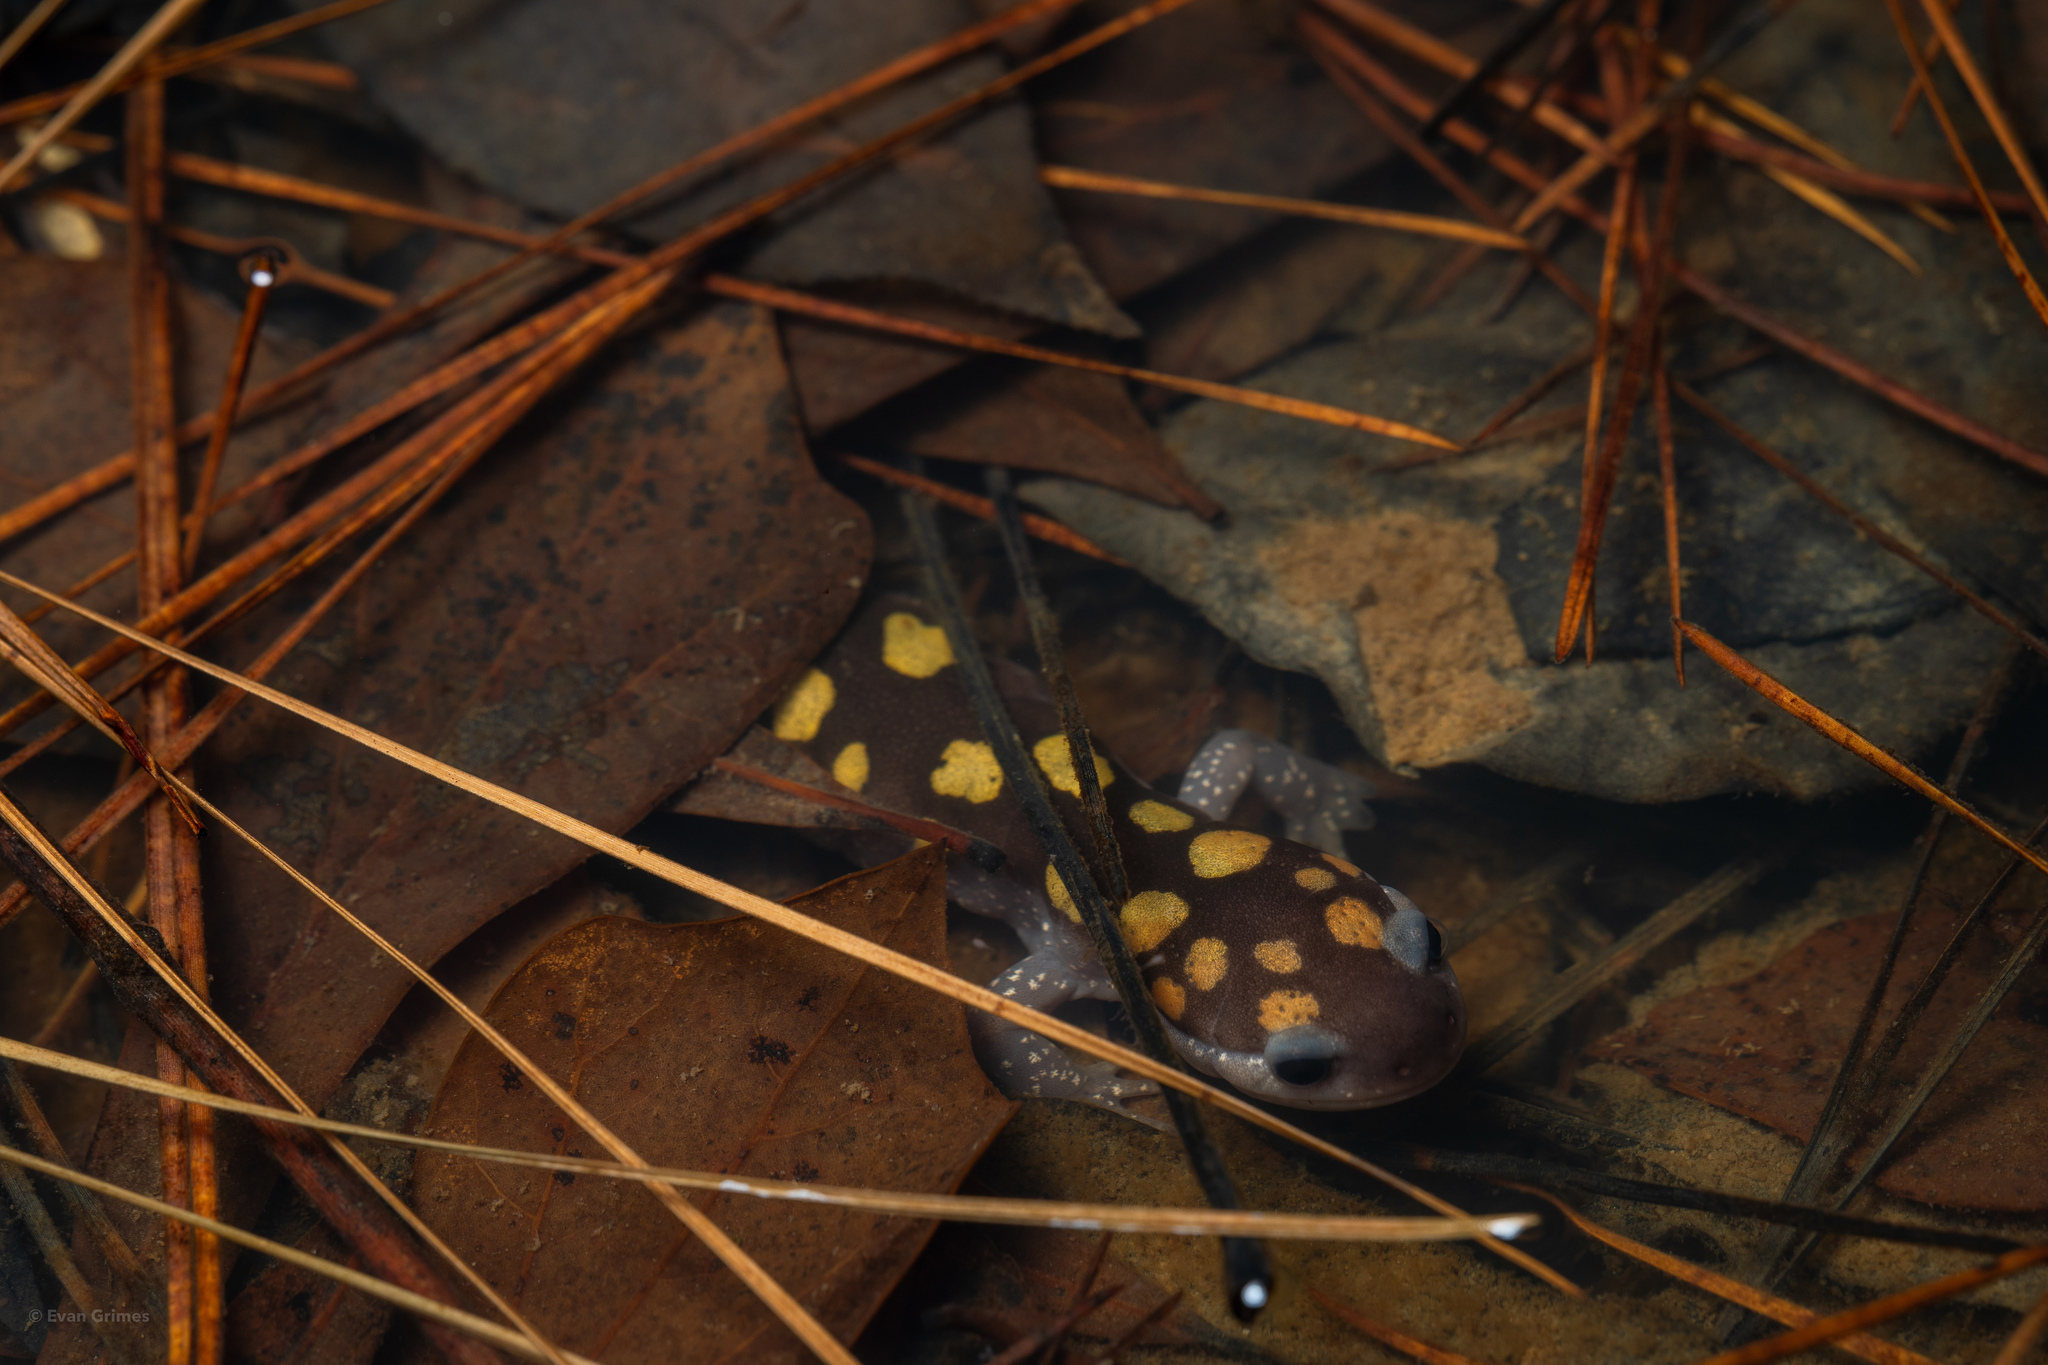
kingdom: Animalia
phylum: Chordata
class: Amphibia
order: Caudata
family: Ambystomatidae
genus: Ambystoma
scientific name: Ambystoma maculatum
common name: Spotted salamander
